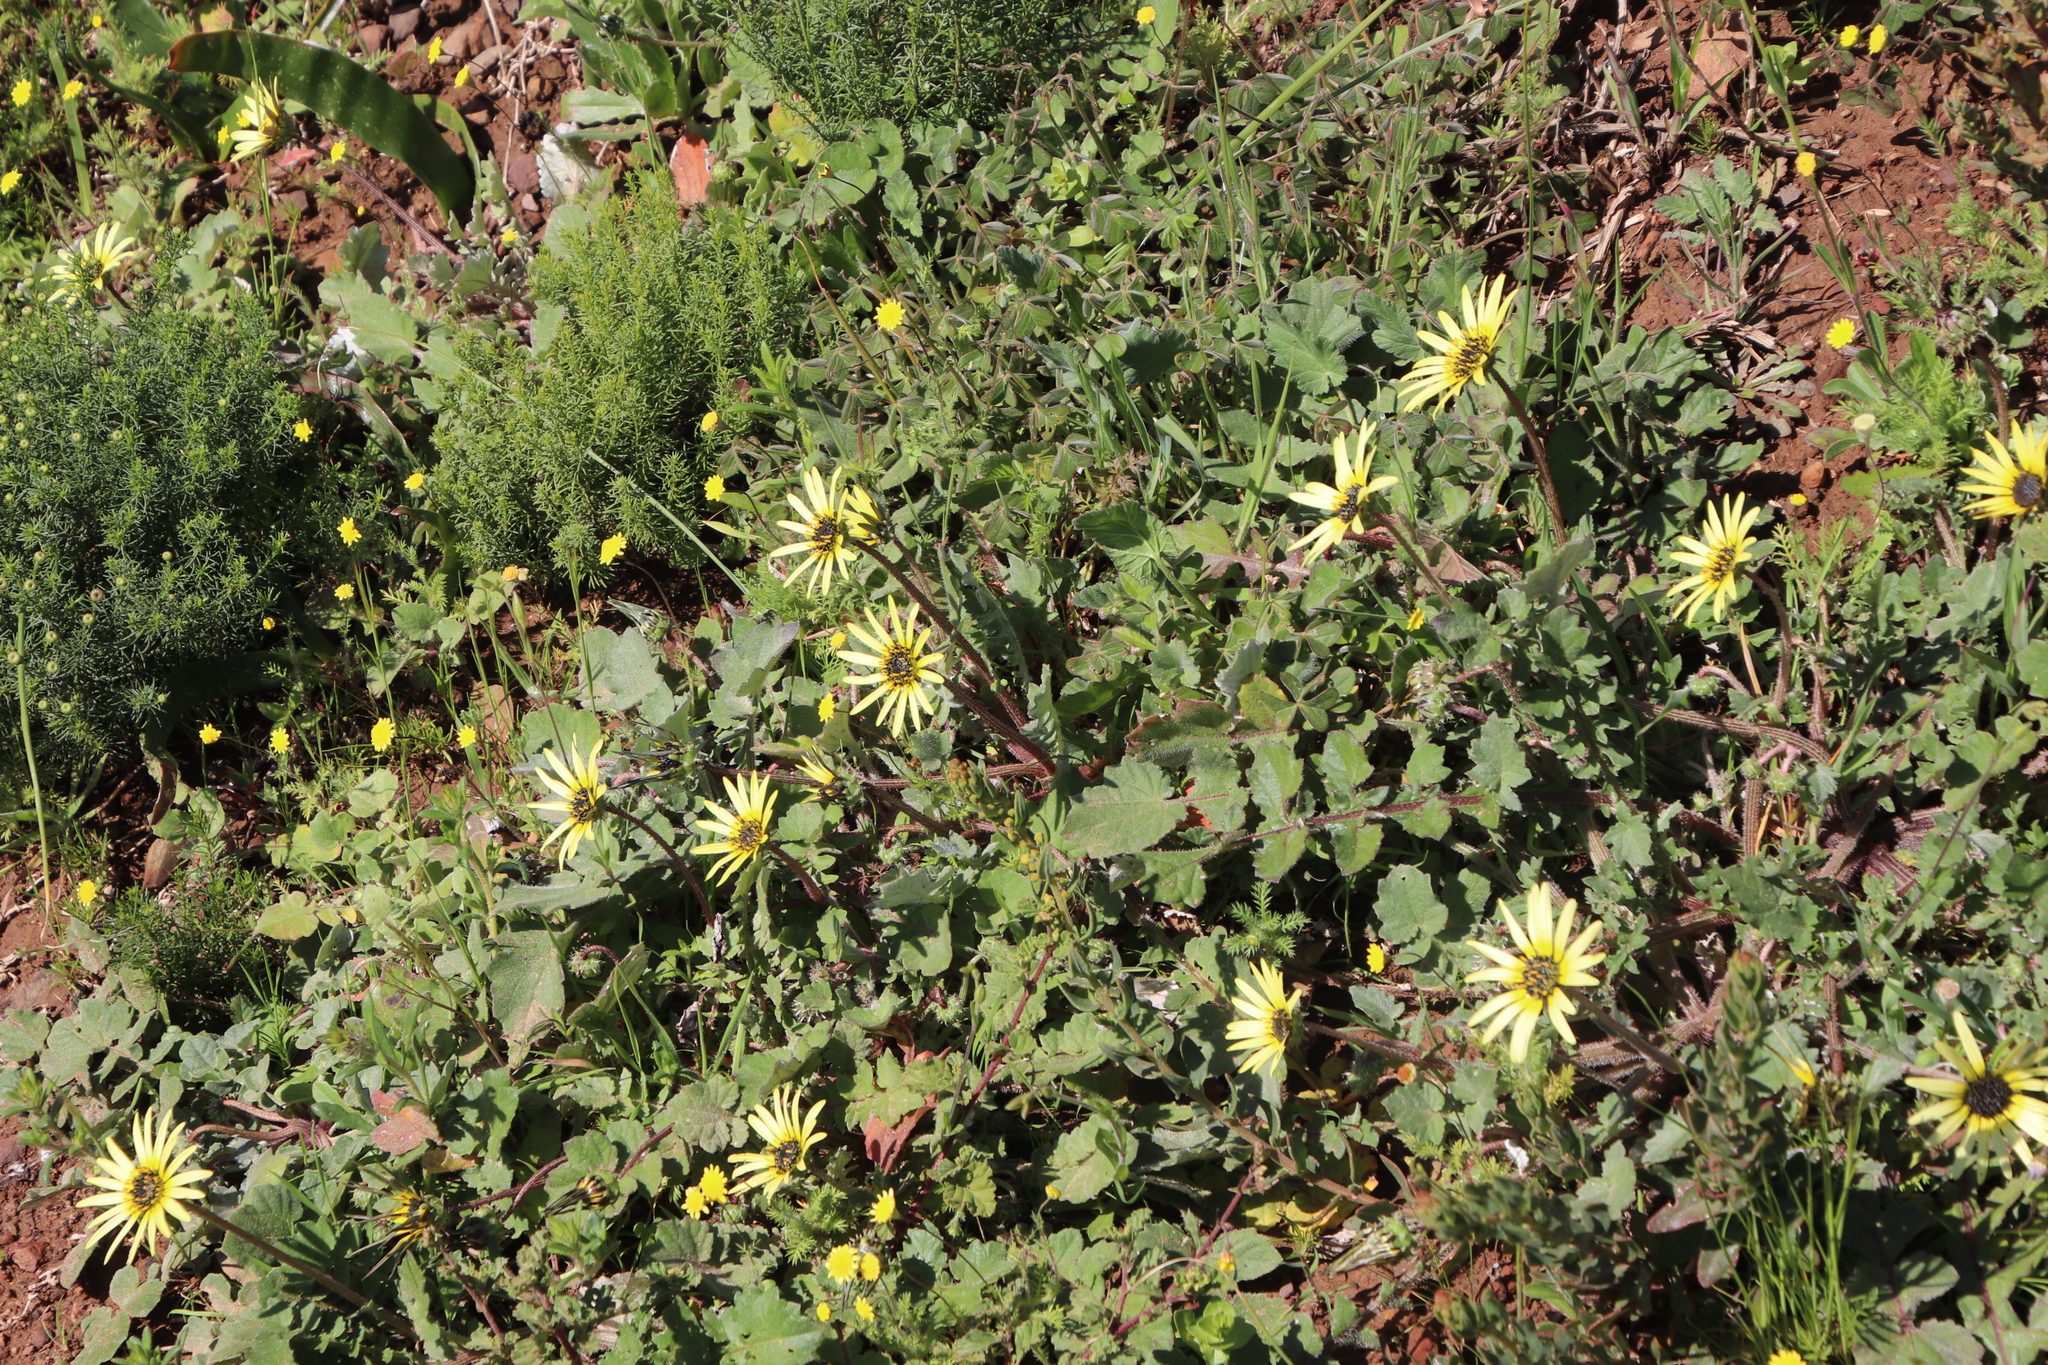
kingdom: Plantae
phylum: Tracheophyta
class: Magnoliopsida
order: Asterales
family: Asteraceae
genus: Arctotheca
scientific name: Arctotheca calendula
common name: Capeweed
